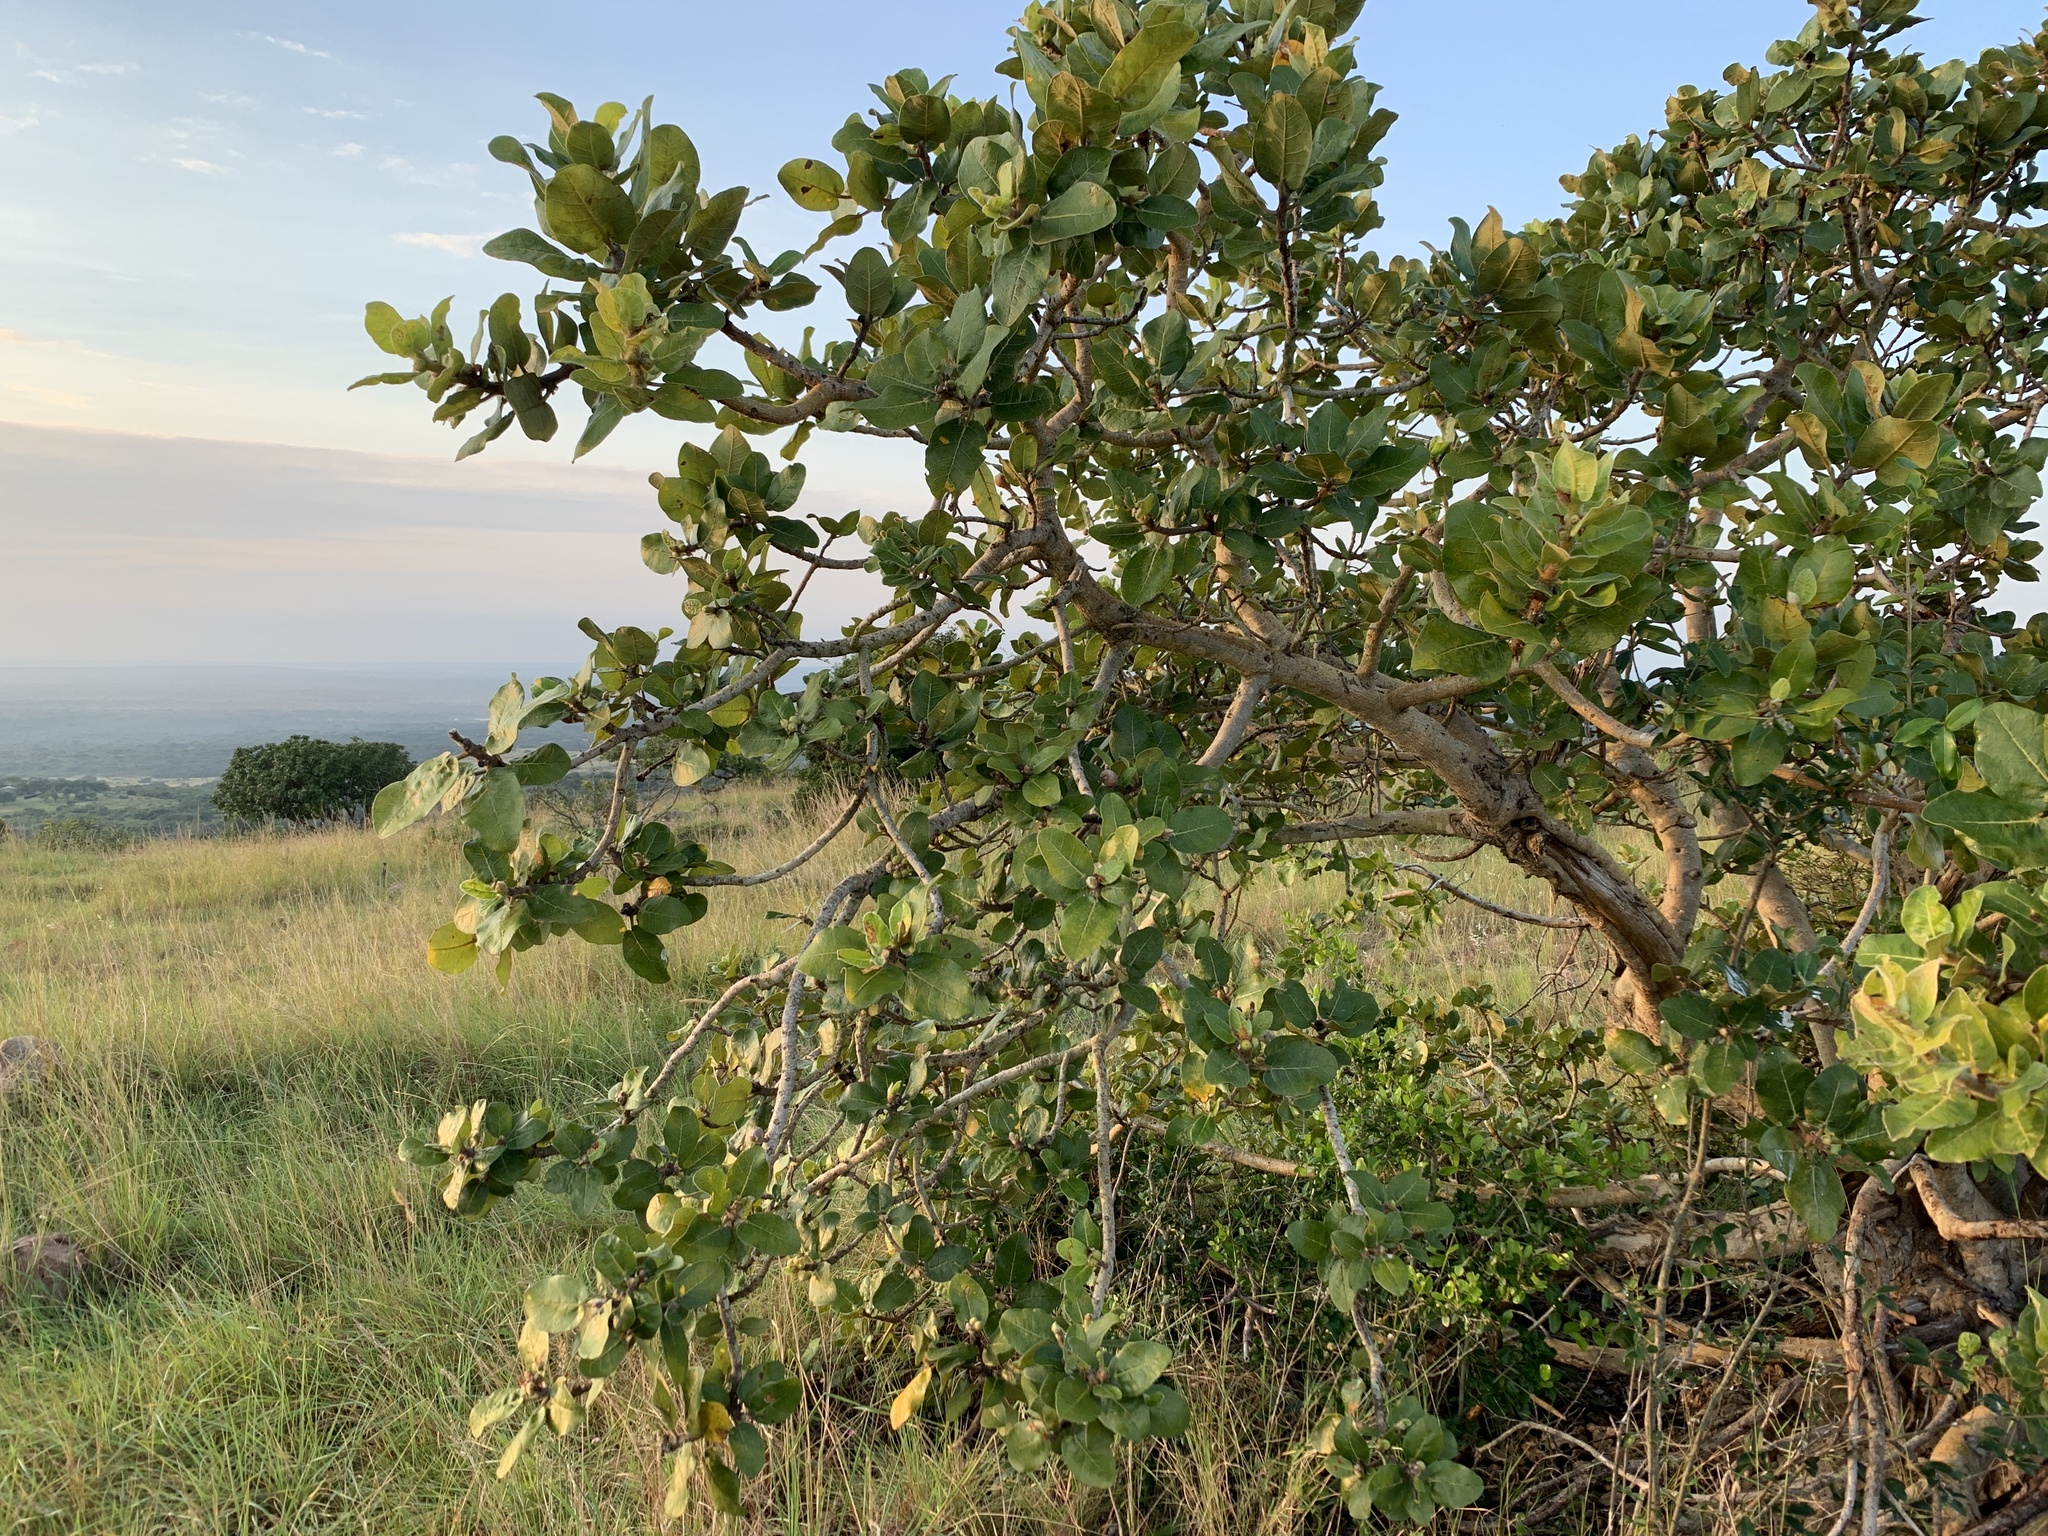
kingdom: Plantae
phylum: Tracheophyta
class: Magnoliopsida
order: Rosales
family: Moraceae
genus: Ficus
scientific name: Ficus glumosa
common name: Hairy rock fig
